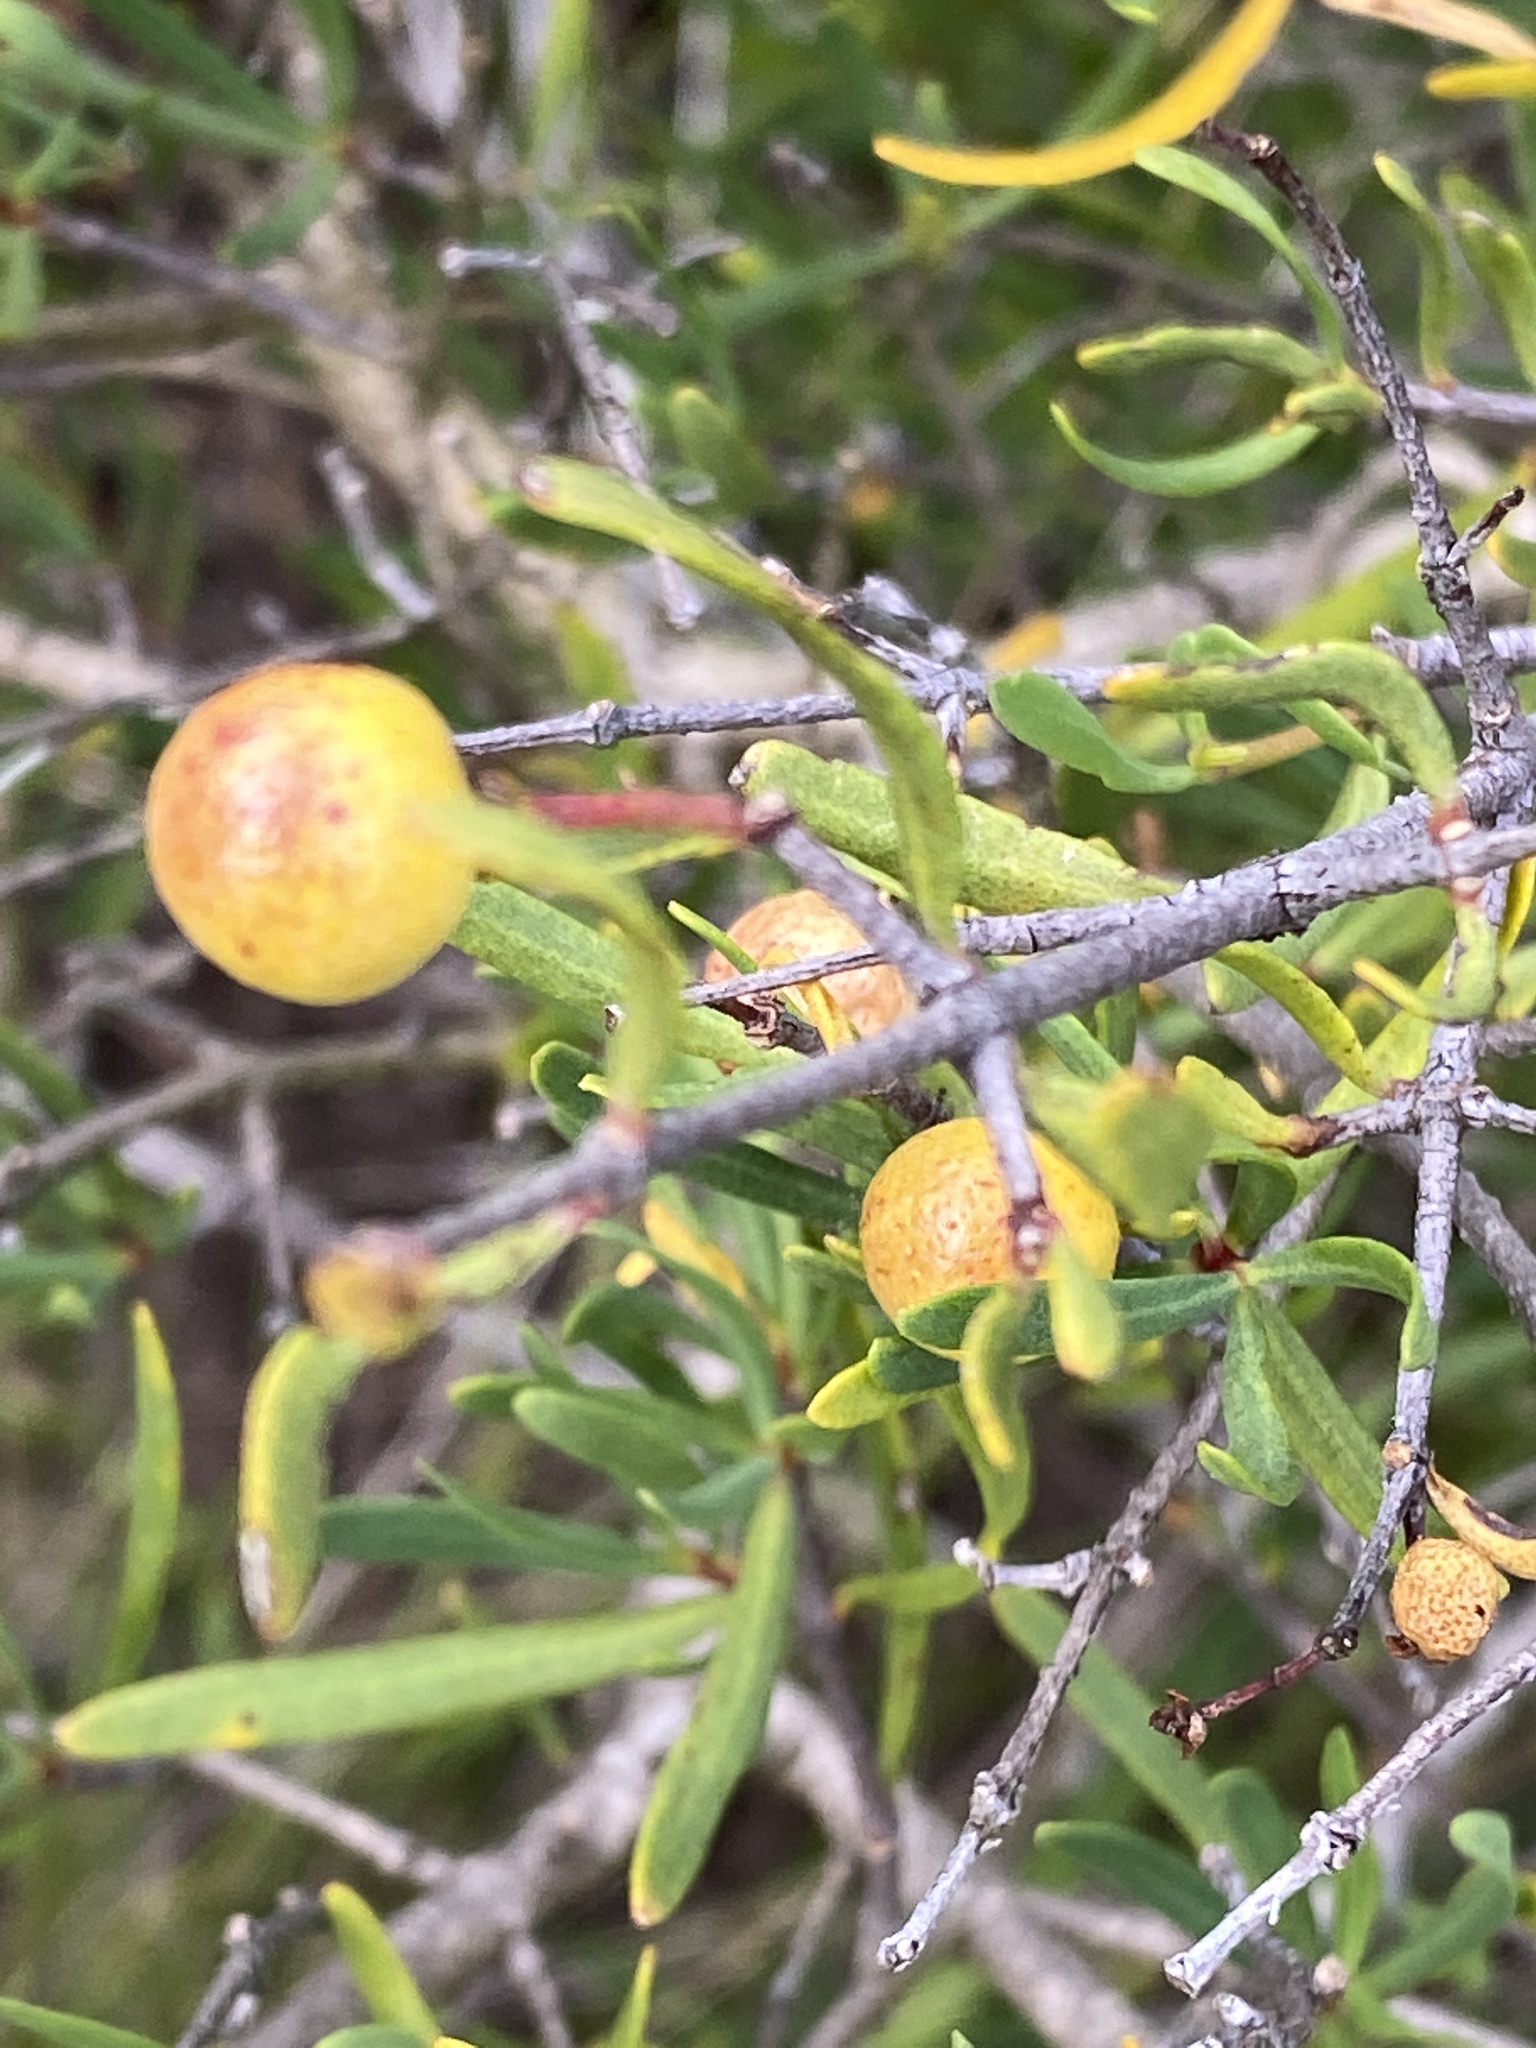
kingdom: Plantae
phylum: Tracheophyta
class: Magnoliopsida
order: Sapindales
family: Rutaceae
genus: Cneoridium
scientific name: Cneoridium dumosum
